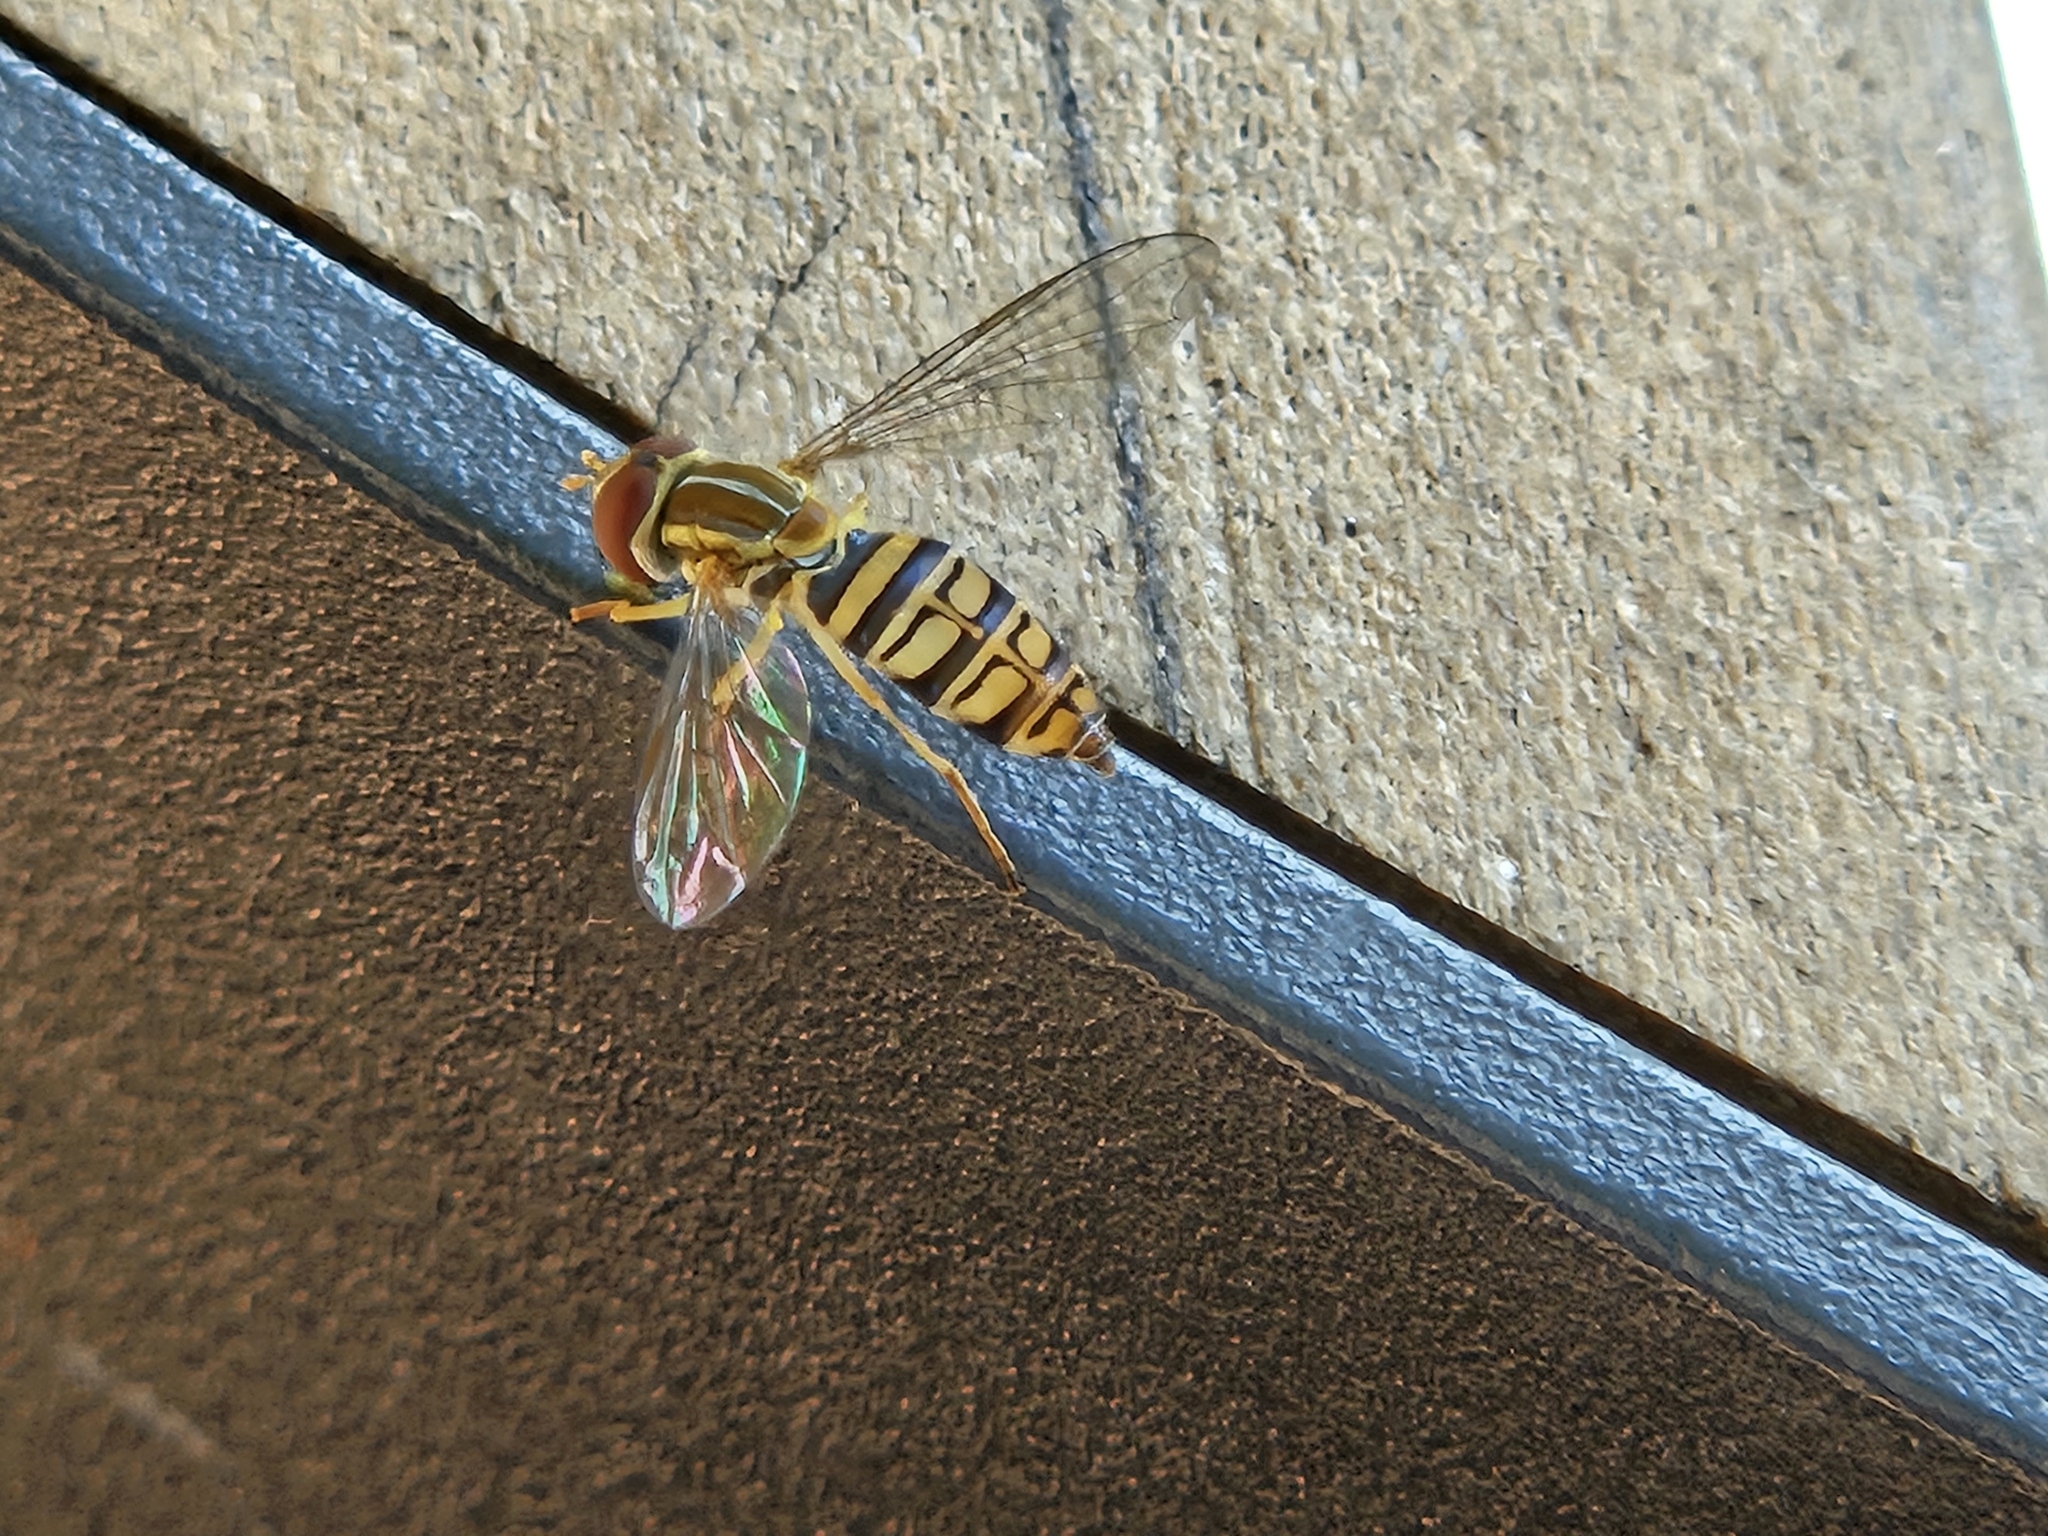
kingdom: Animalia
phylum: Arthropoda
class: Insecta
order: Diptera
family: Syrphidae
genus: Toxomerus
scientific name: Toxomerus politus
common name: Maize calligrapher
